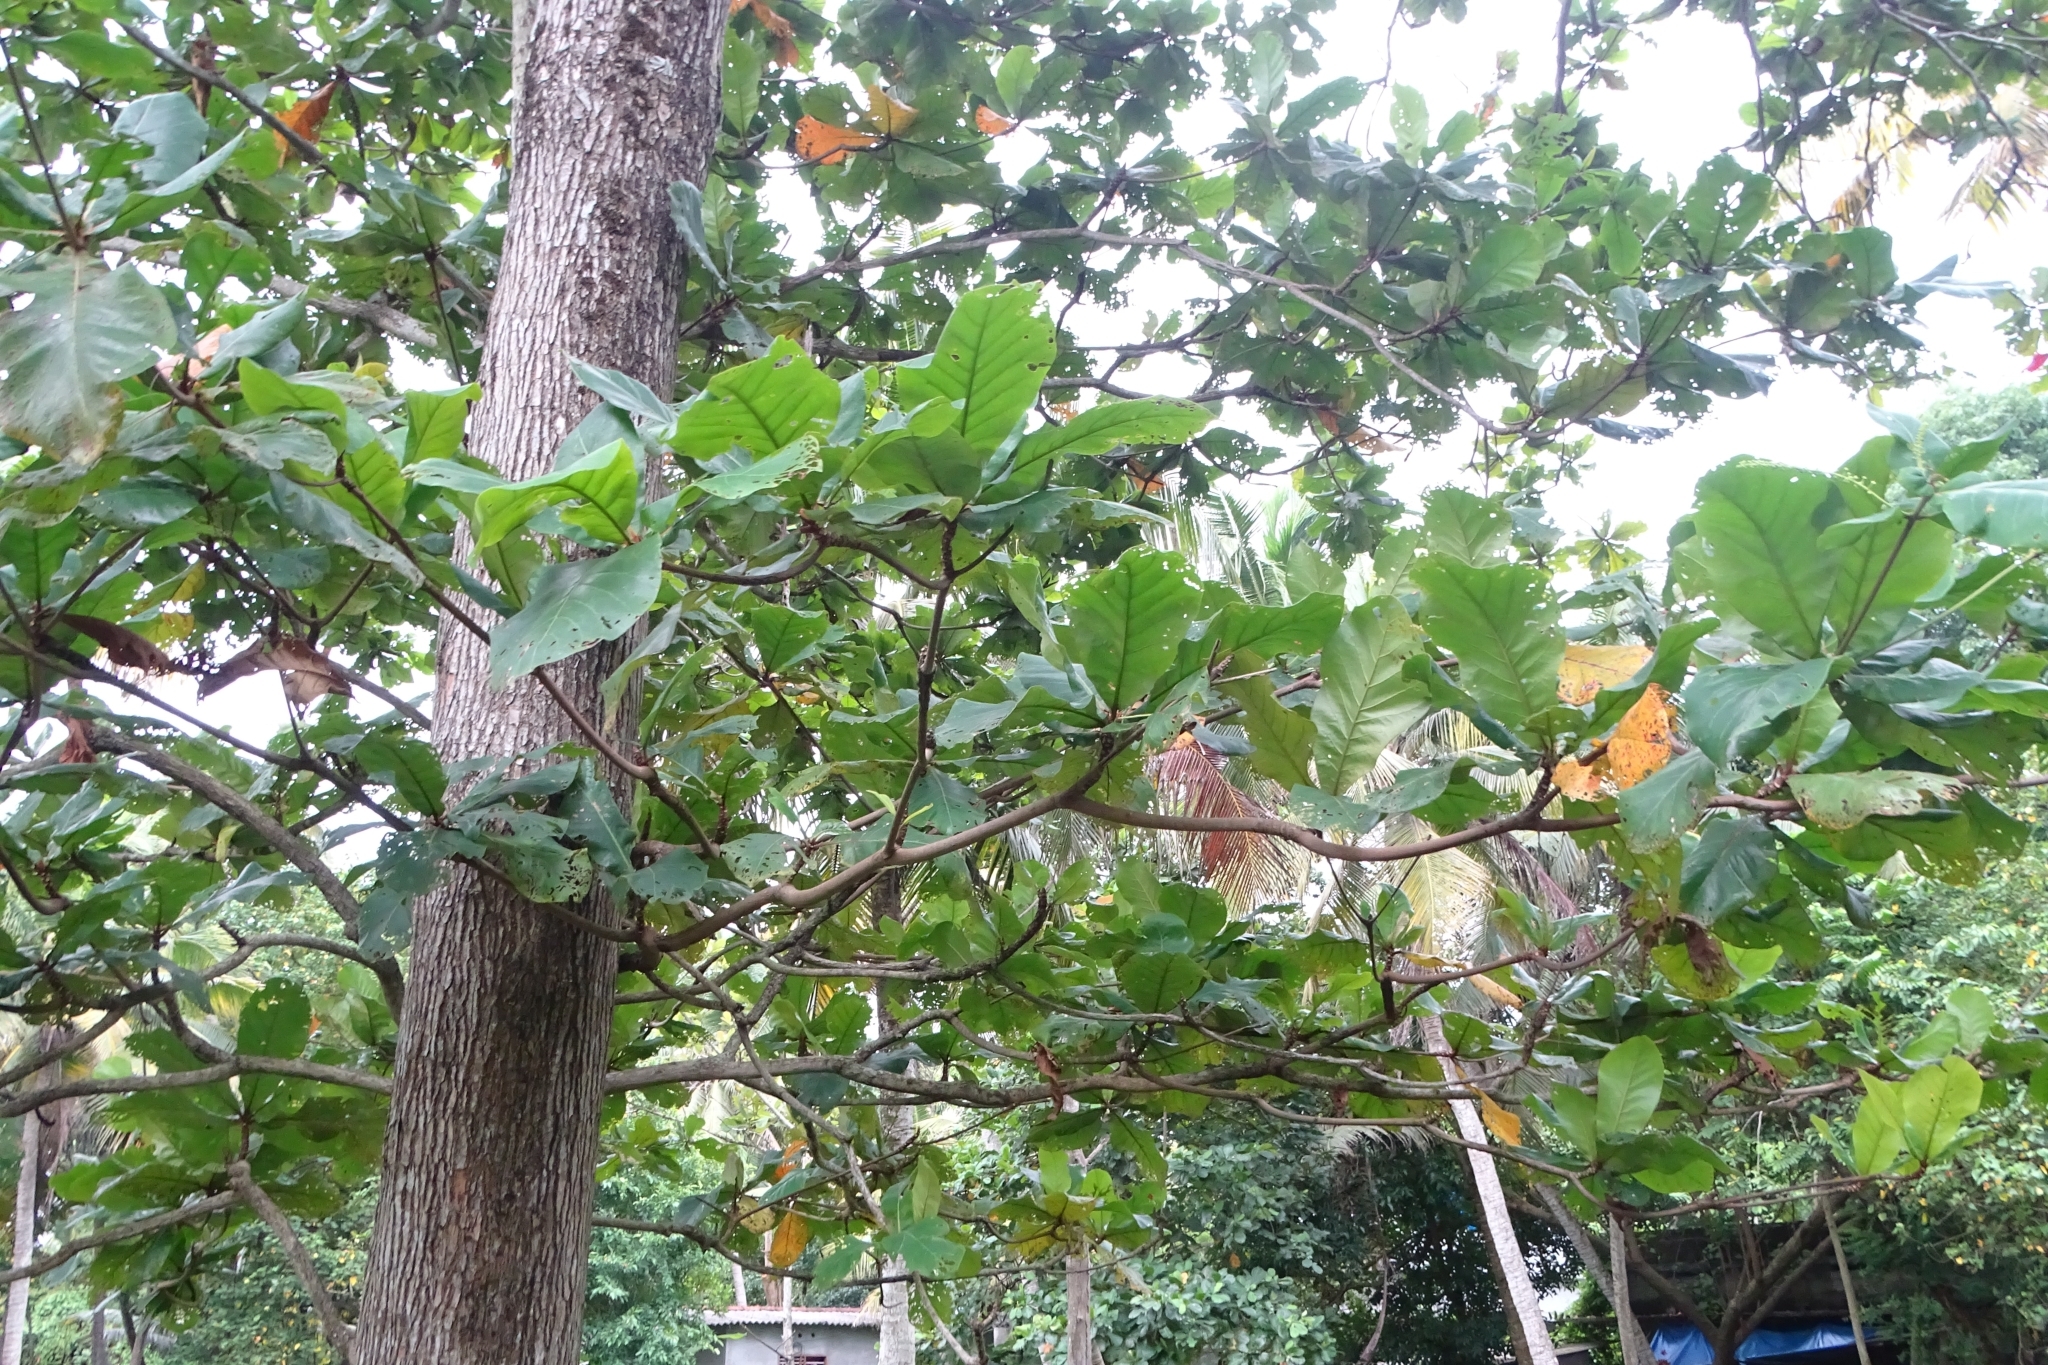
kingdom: Plantae
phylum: Tracheophyta
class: Magnoliopsida
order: Myrtales
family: Combretaceae
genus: Terminalia
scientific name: Terminalia catappa
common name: Tropical almond
